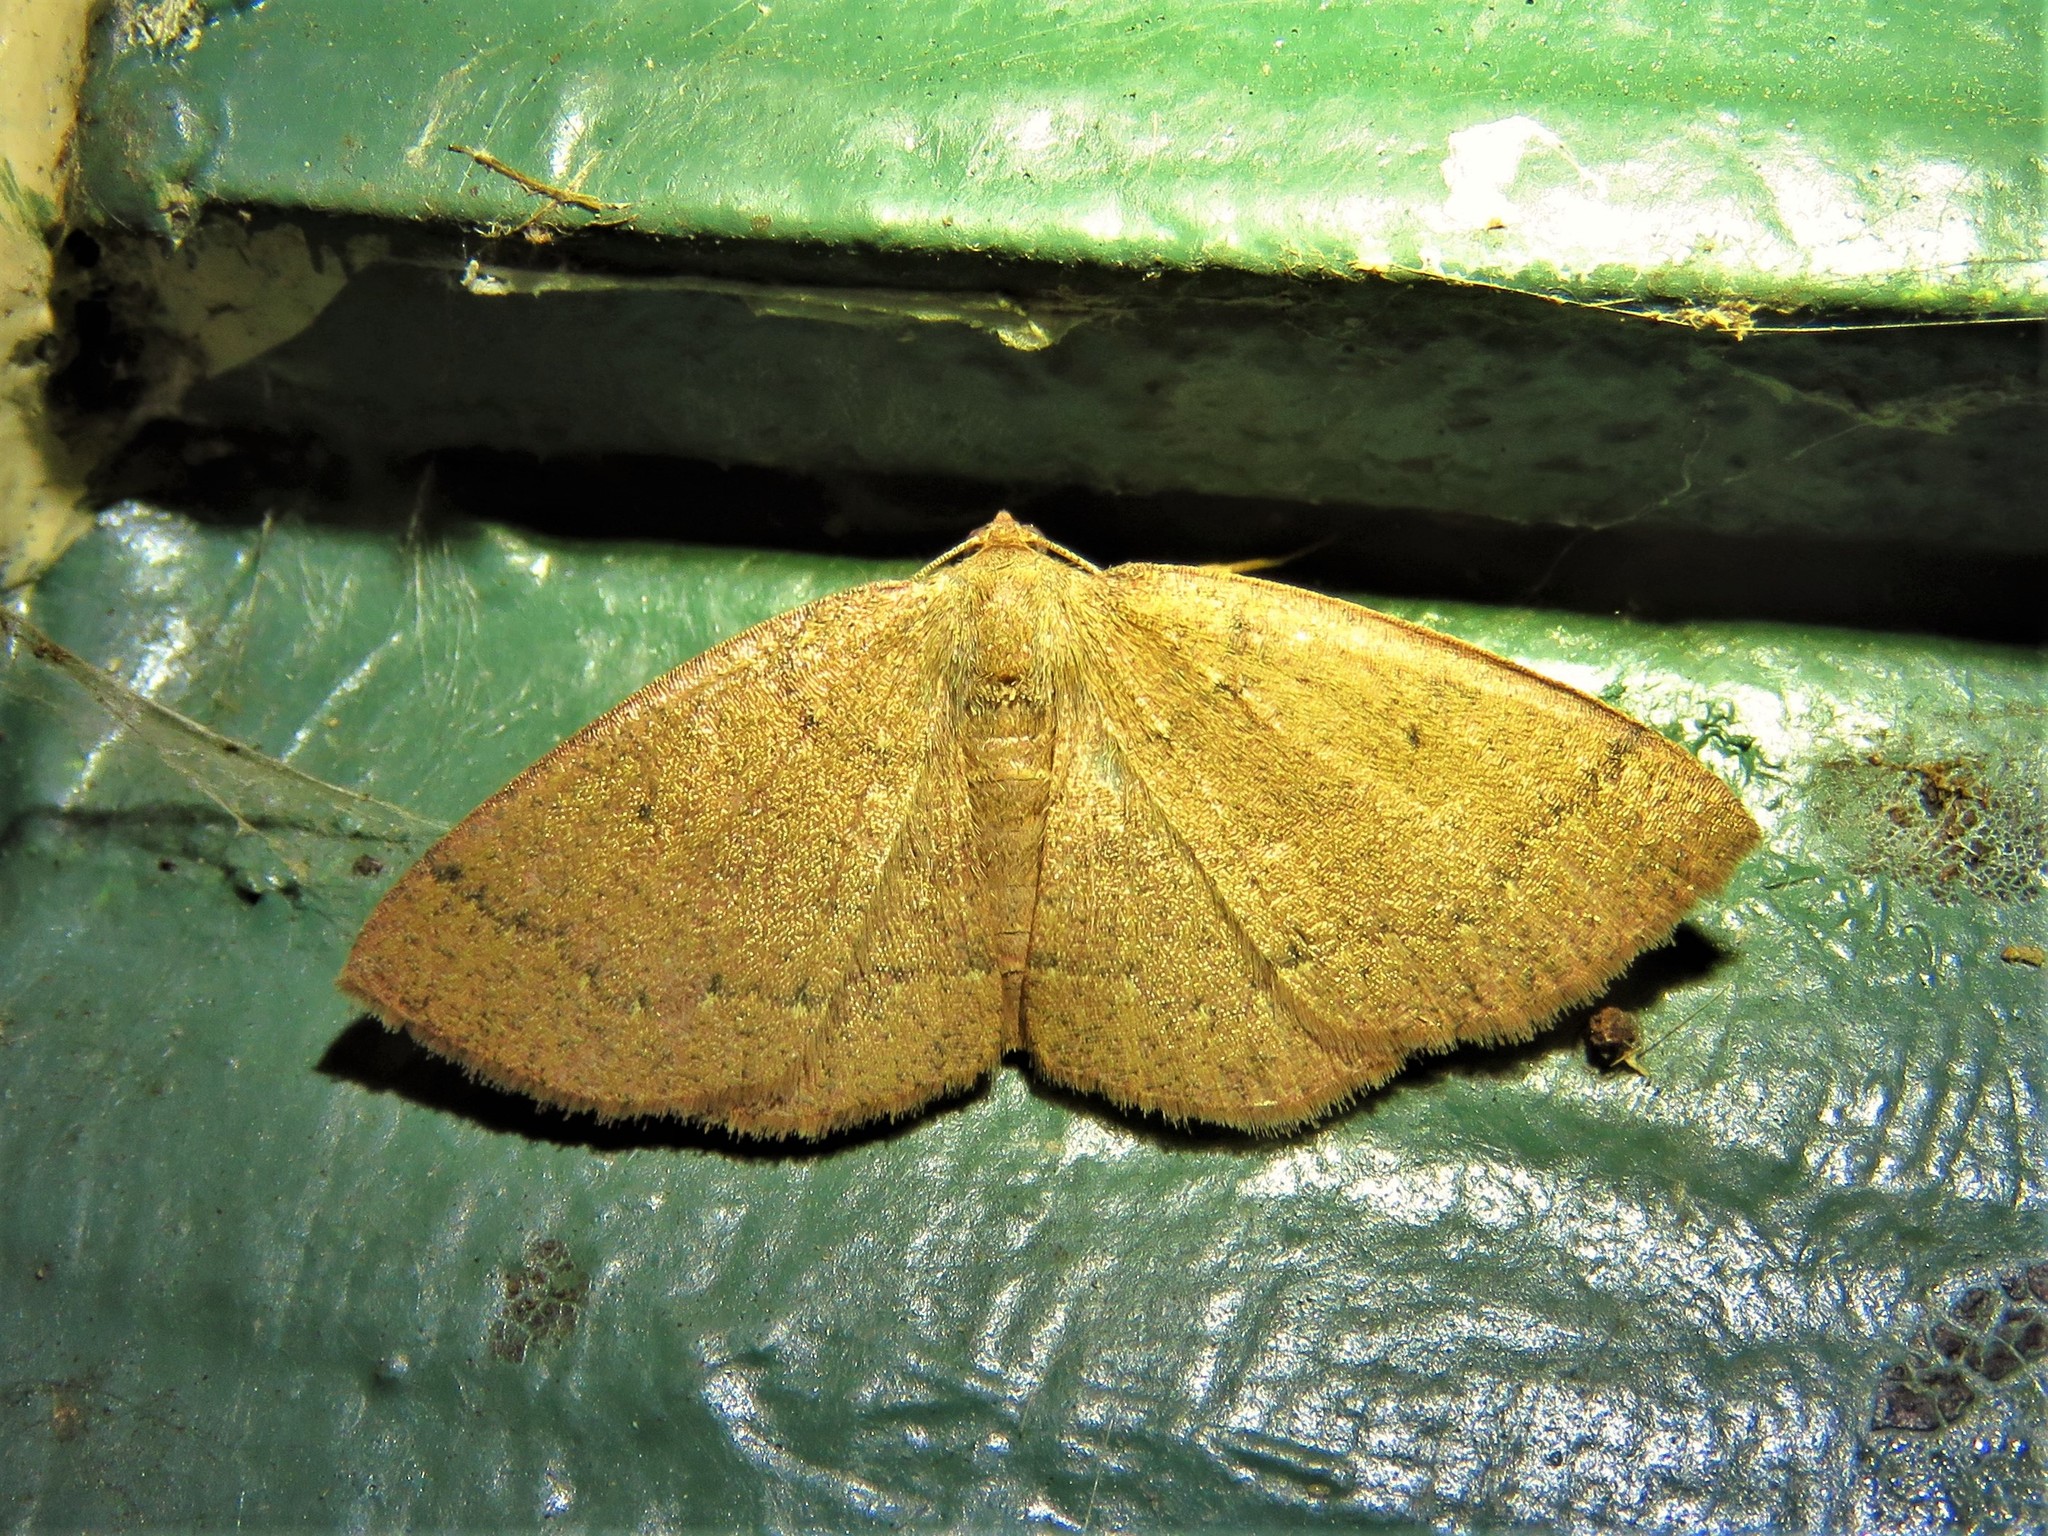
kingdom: Animalia
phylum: Arthropoda
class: Insecta
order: Lepidoptera
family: Geometridae
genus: Ilexia
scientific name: Ilexia intractata
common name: Black-dotted ruddy moth
